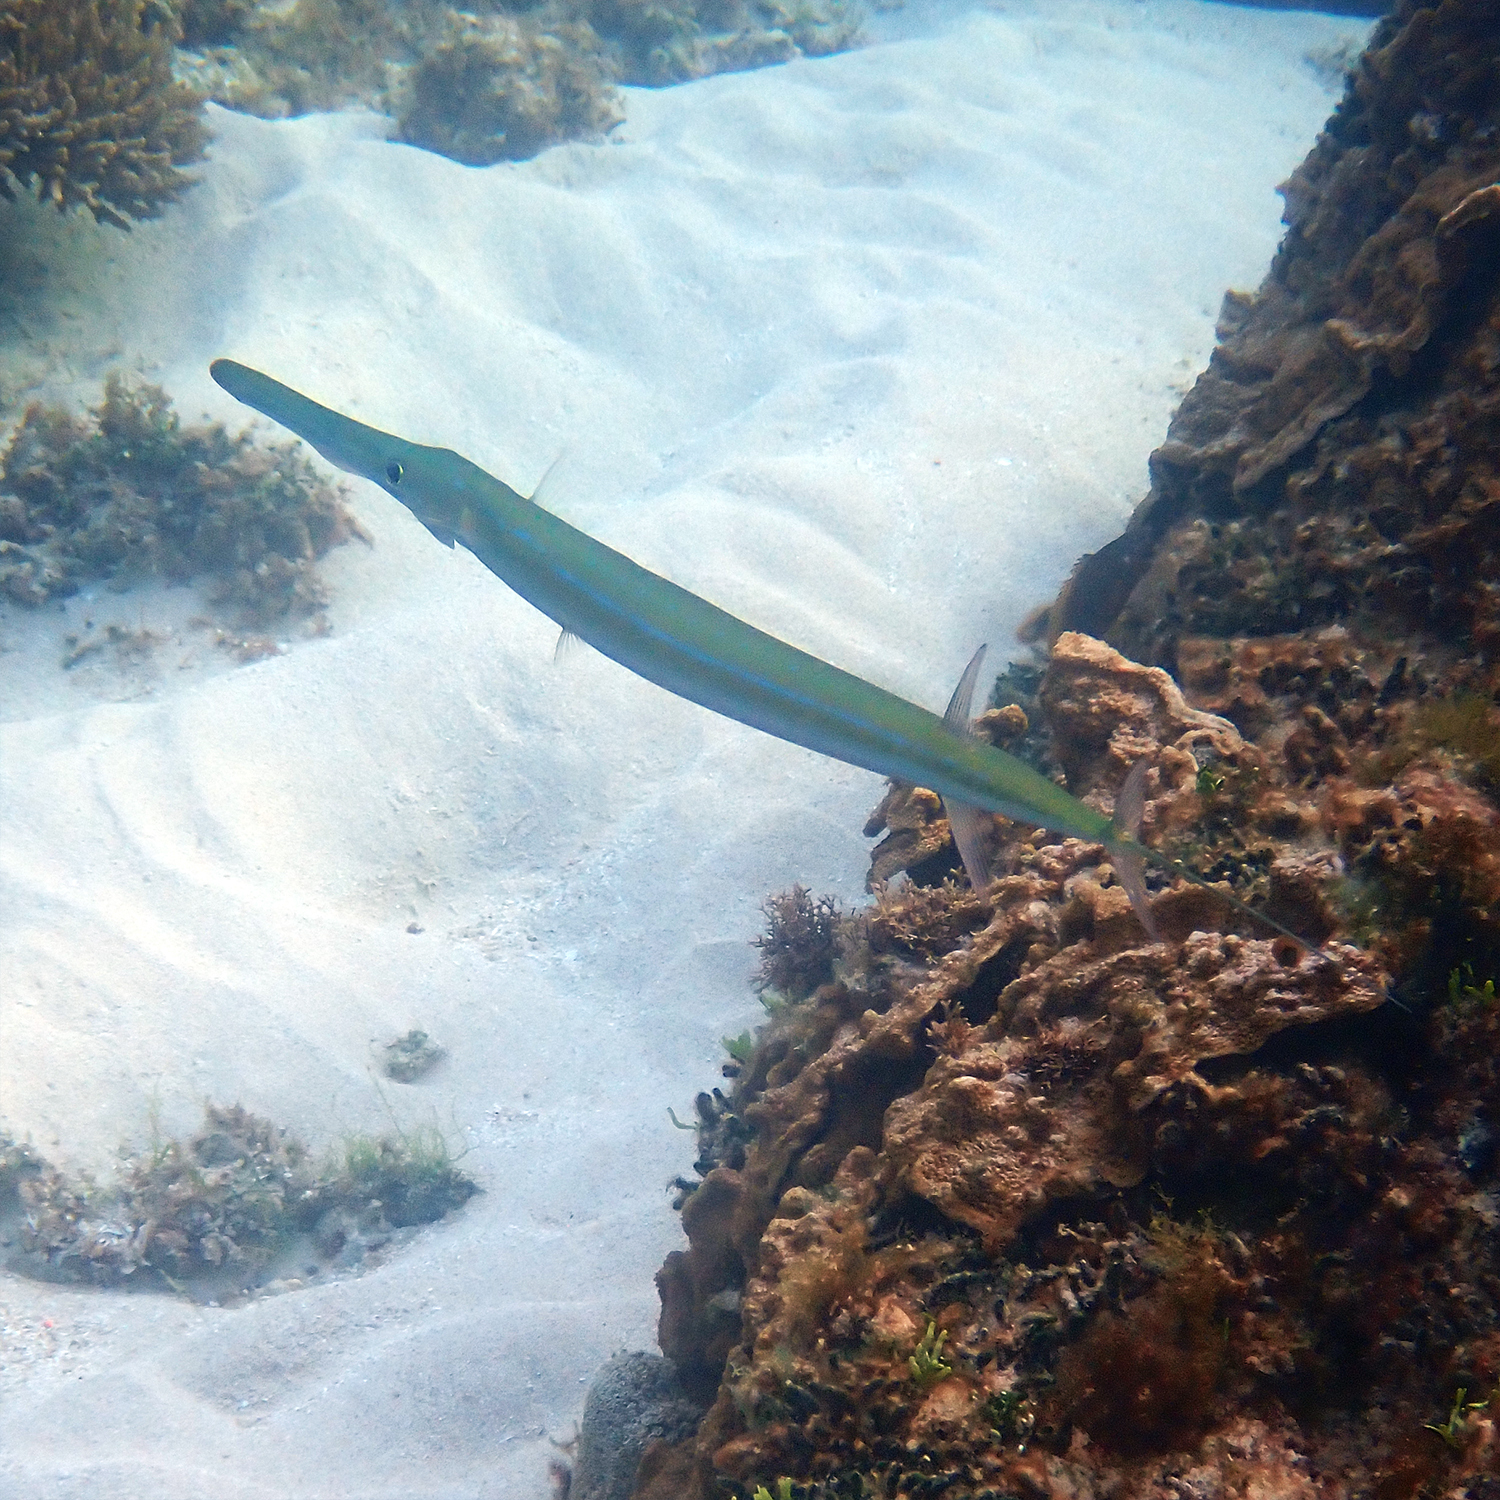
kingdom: Animalia
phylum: Chordata
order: Syngnathiformes
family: Fistulariidae
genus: Fistularia
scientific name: Fistularia commersonii
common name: Bluespotted cornetfish
